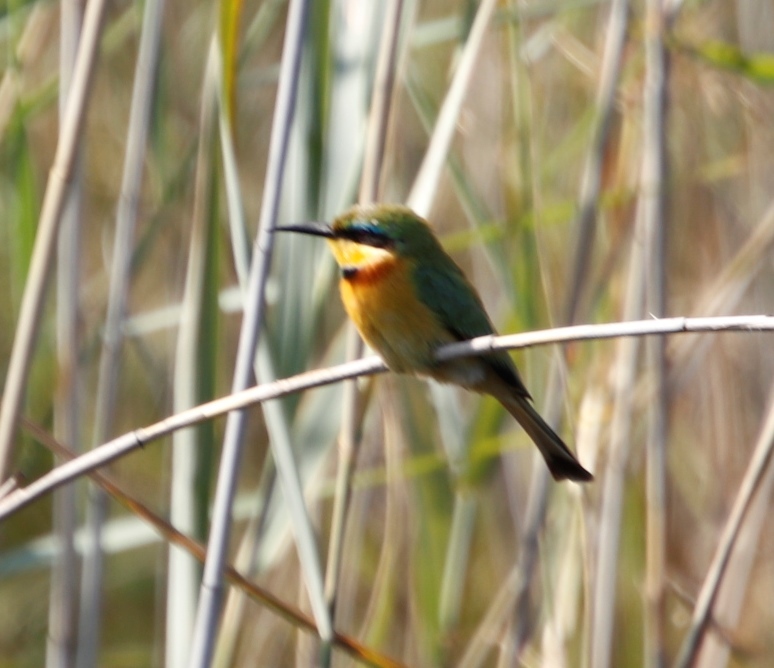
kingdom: Animalia
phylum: Chordata
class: Aves
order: Coraciiformes
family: Meropidae
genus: Merops
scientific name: Merops pusillus
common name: Little bee-eater
